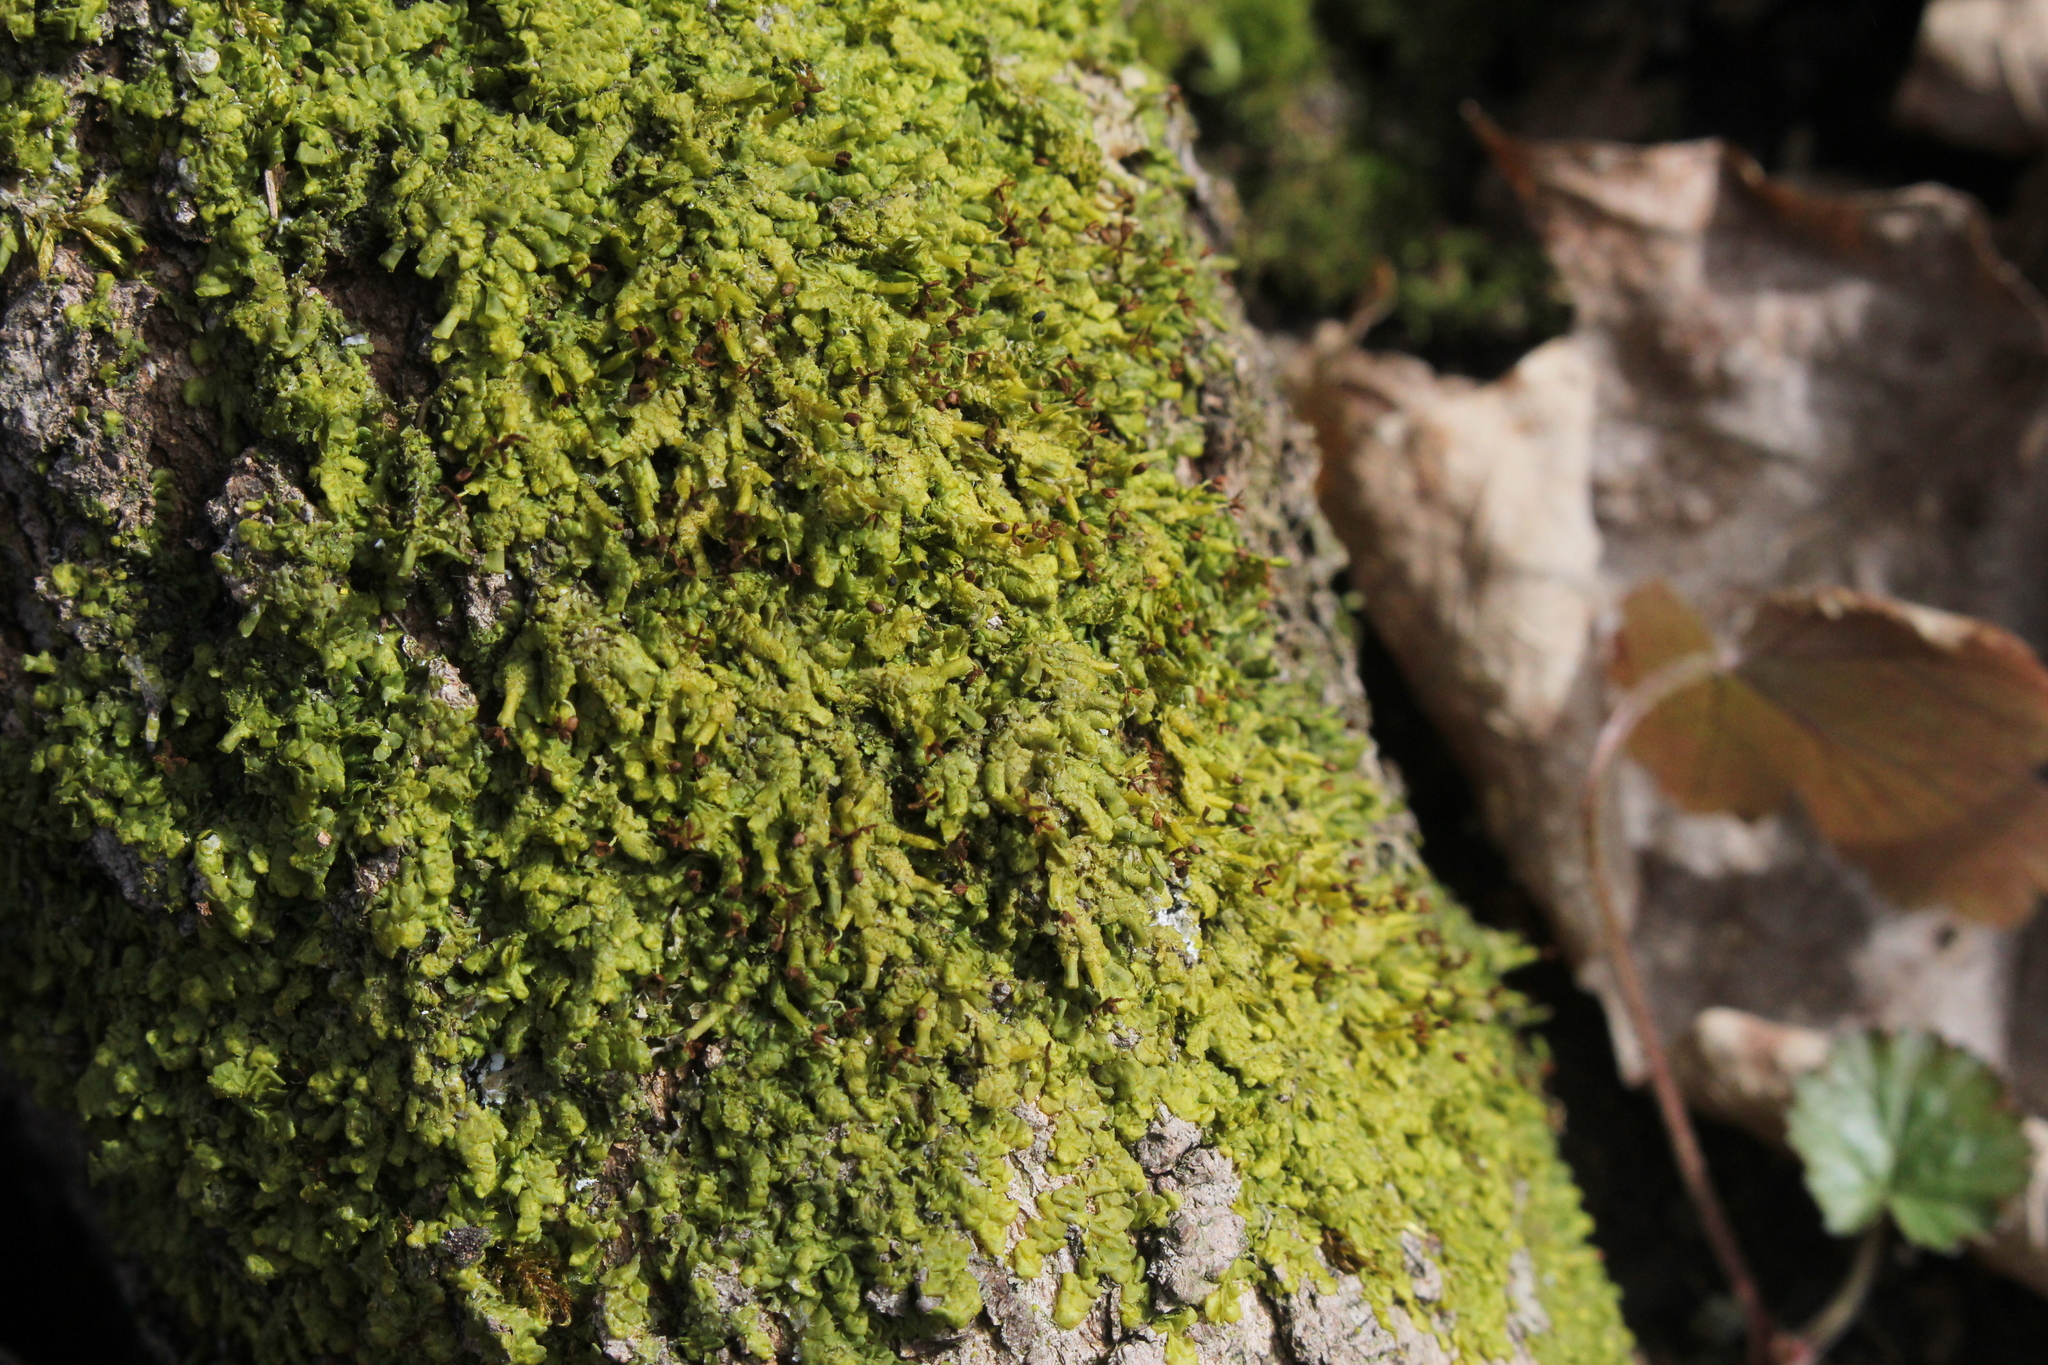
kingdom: Plantae
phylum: Marchantiophyta
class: Jungermanniopsida
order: Porellales
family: Radulaceae
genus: Radula
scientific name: Radula complanata
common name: Flat-leaved scalewort
